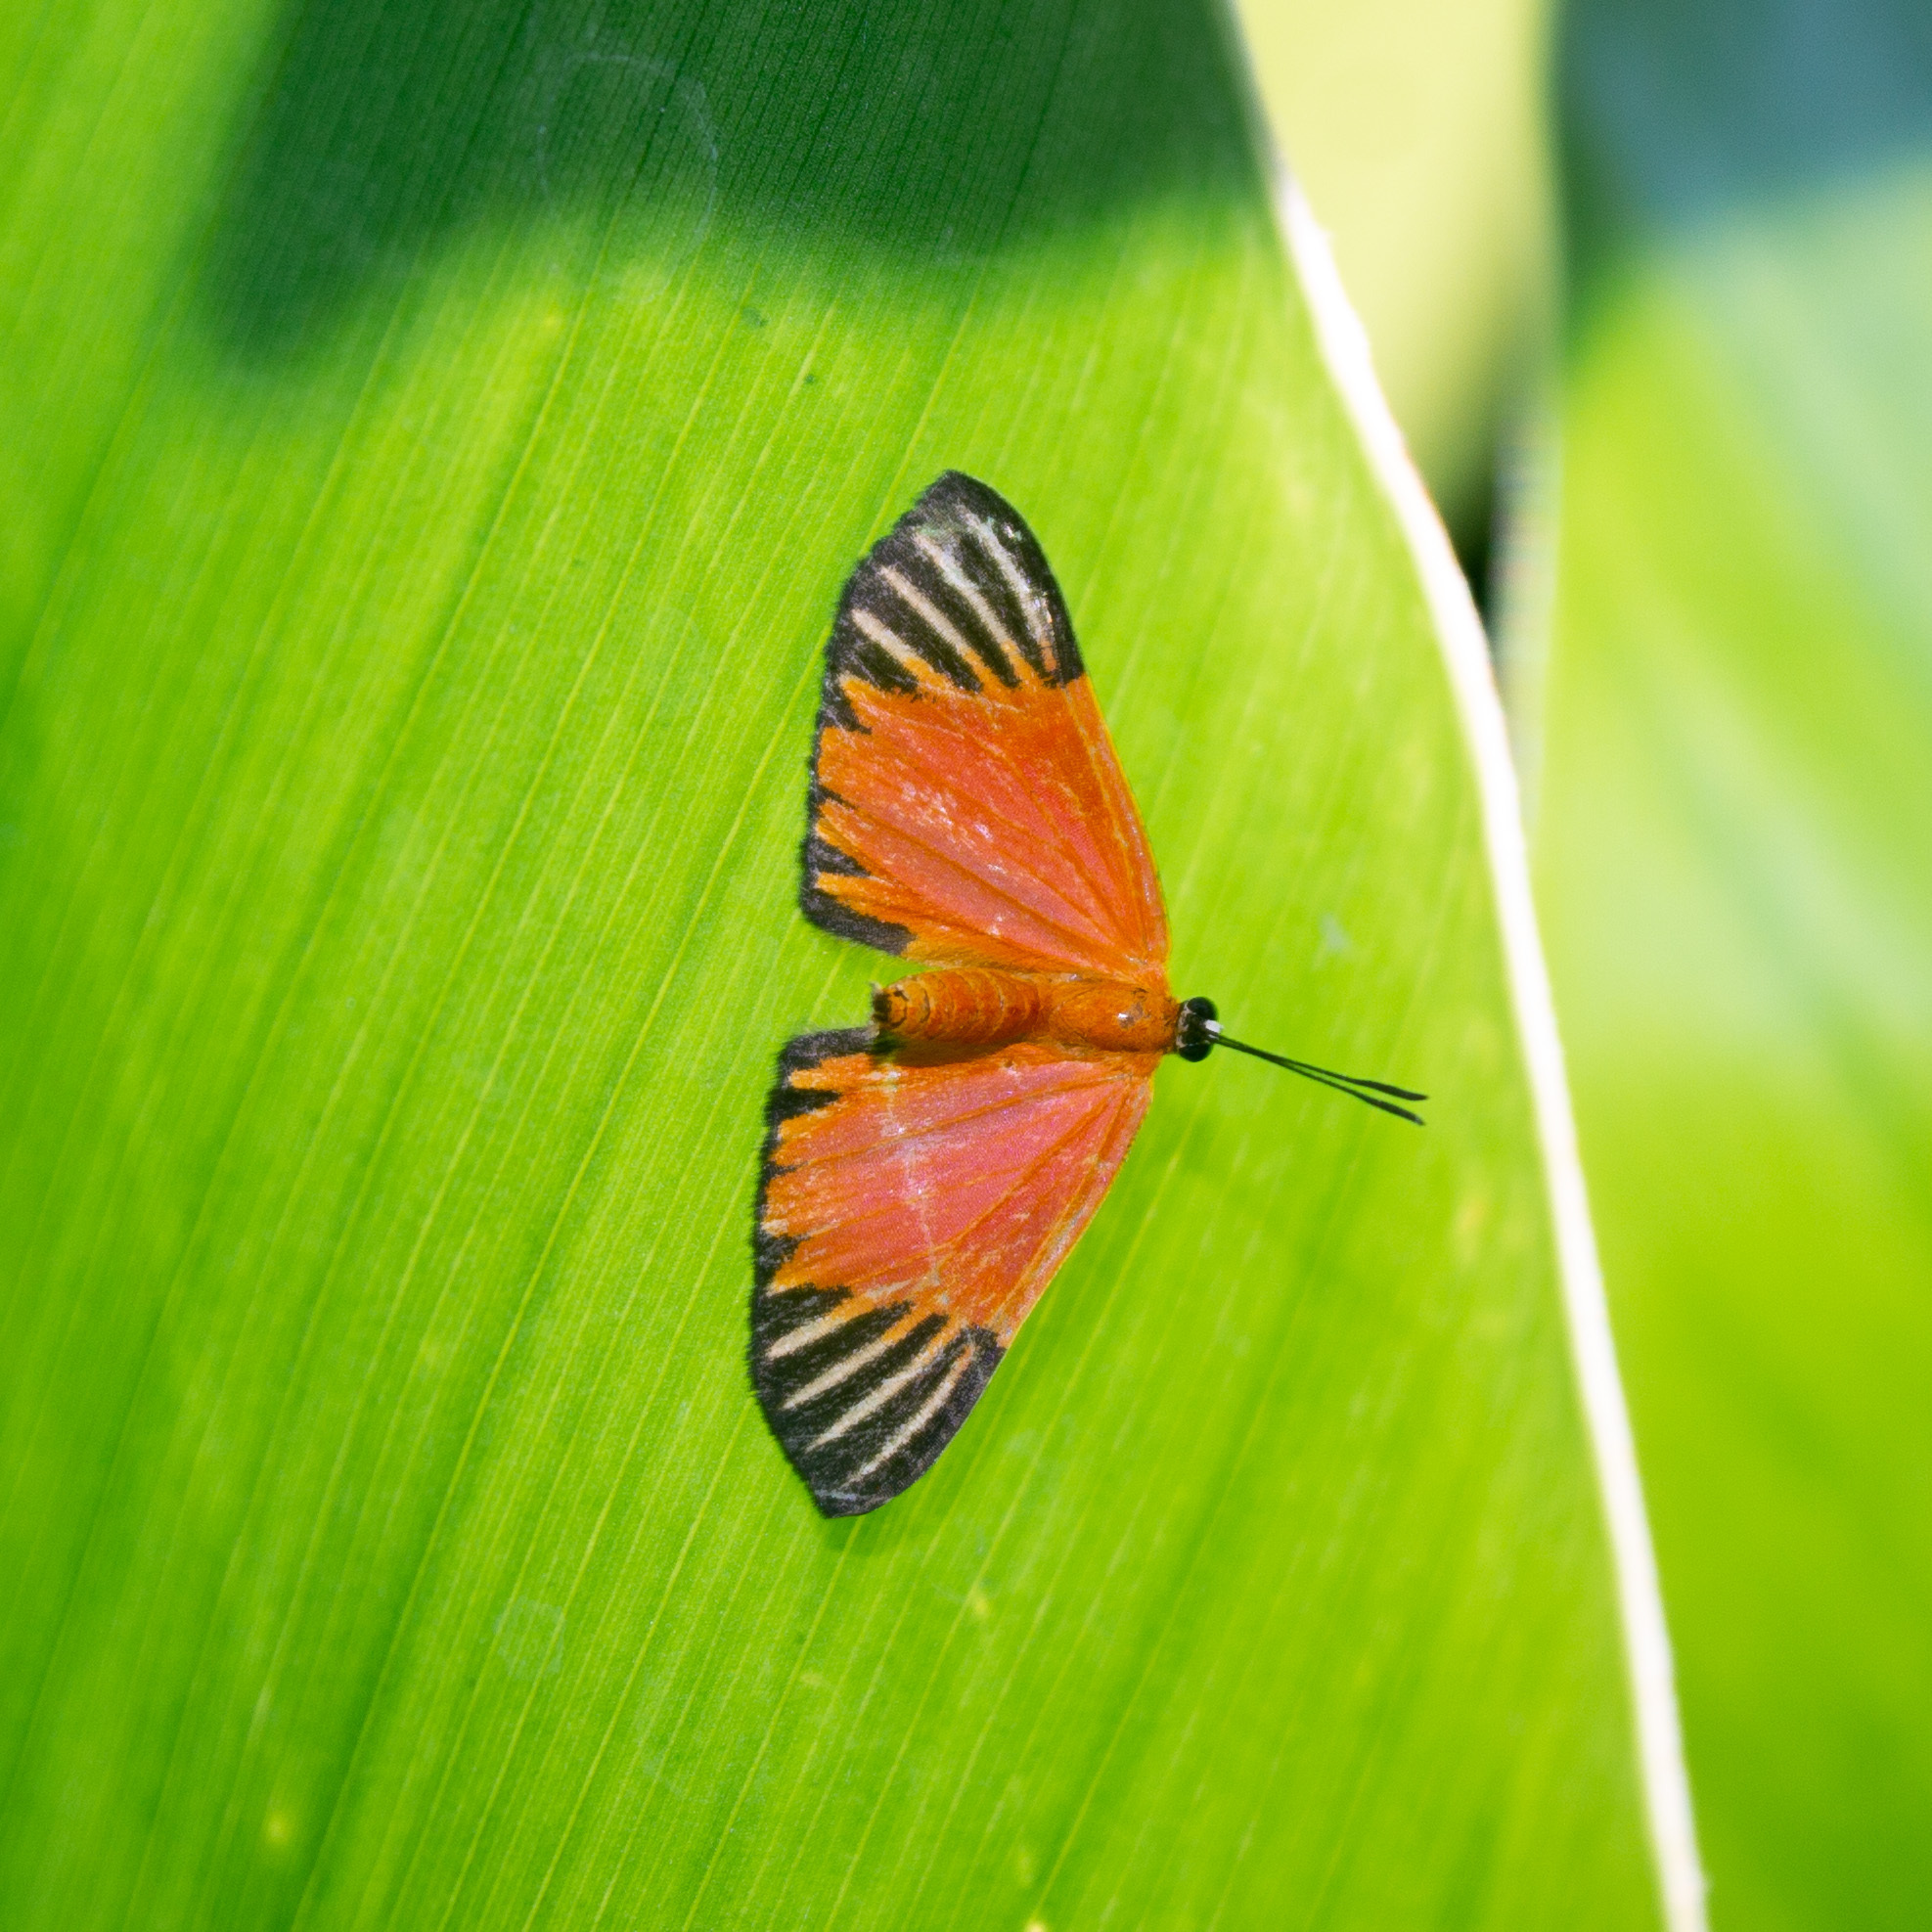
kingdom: Animalia
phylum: Arthropoda
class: Insecta
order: Lepidoptera
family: Lycaenidae
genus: Mesene
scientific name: Mesene margaretta
